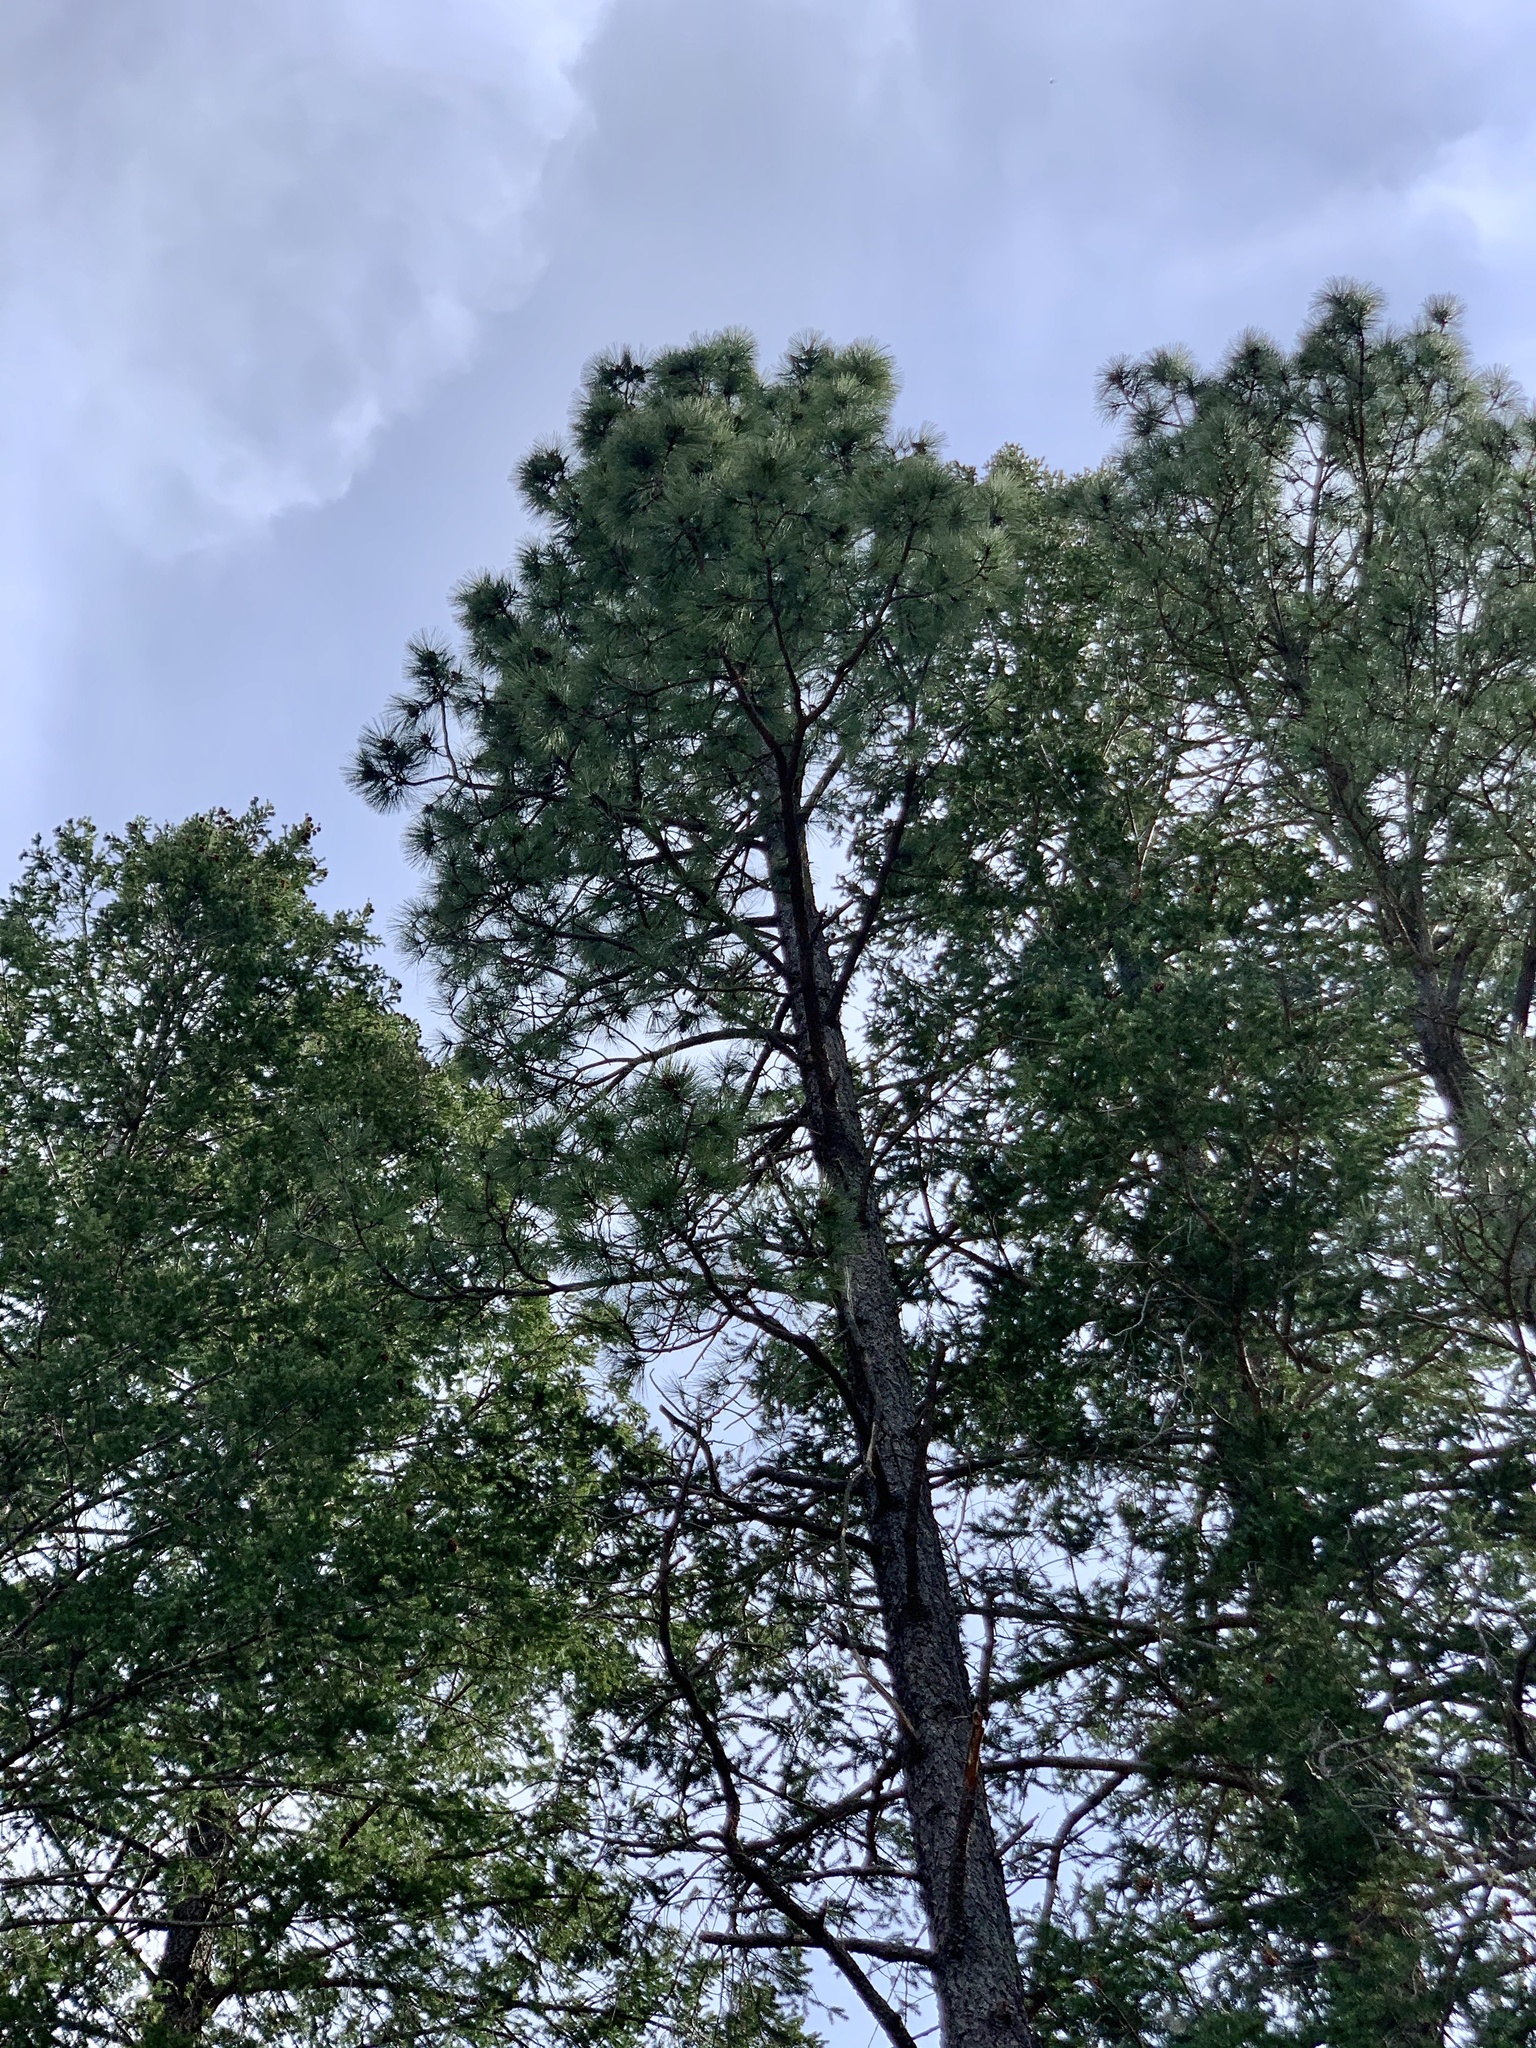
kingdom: Plantae
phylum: Tracheophyta
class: Pinopsida
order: Pinales
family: Pinaceae
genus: Pinus
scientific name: Pinus ponderosa
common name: Western yellow-pine
